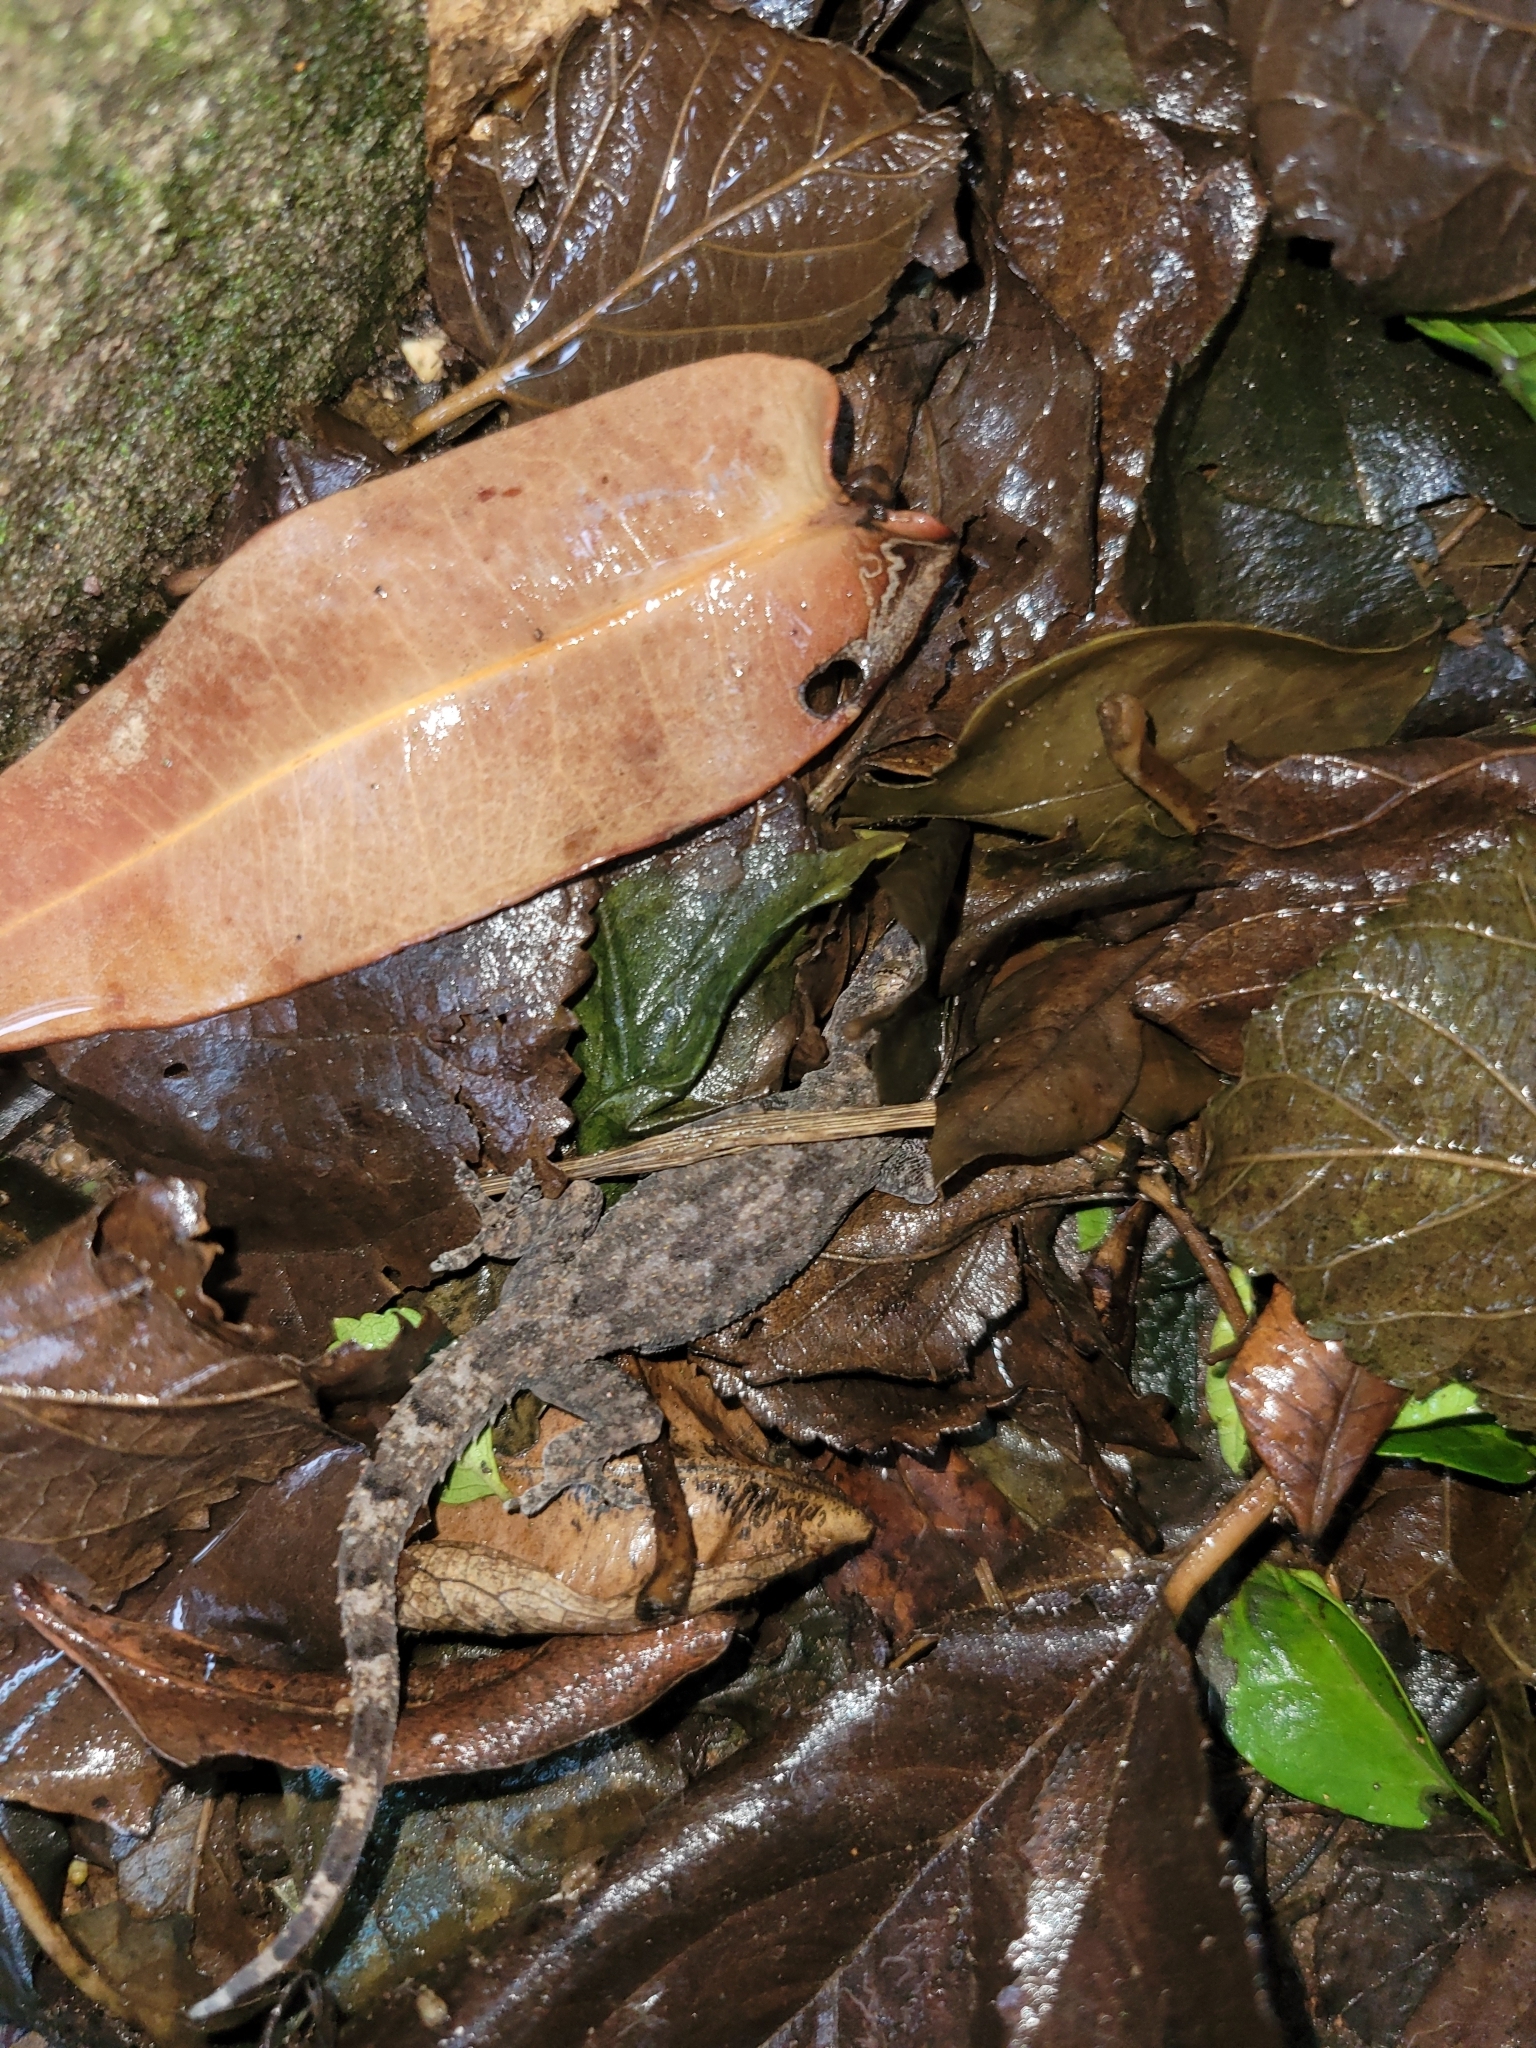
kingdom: Animalia
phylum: Chordata
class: Squamata
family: Gekkonidae
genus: Hemidactylus
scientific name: Hemidactylus mabouia
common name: House gecko
